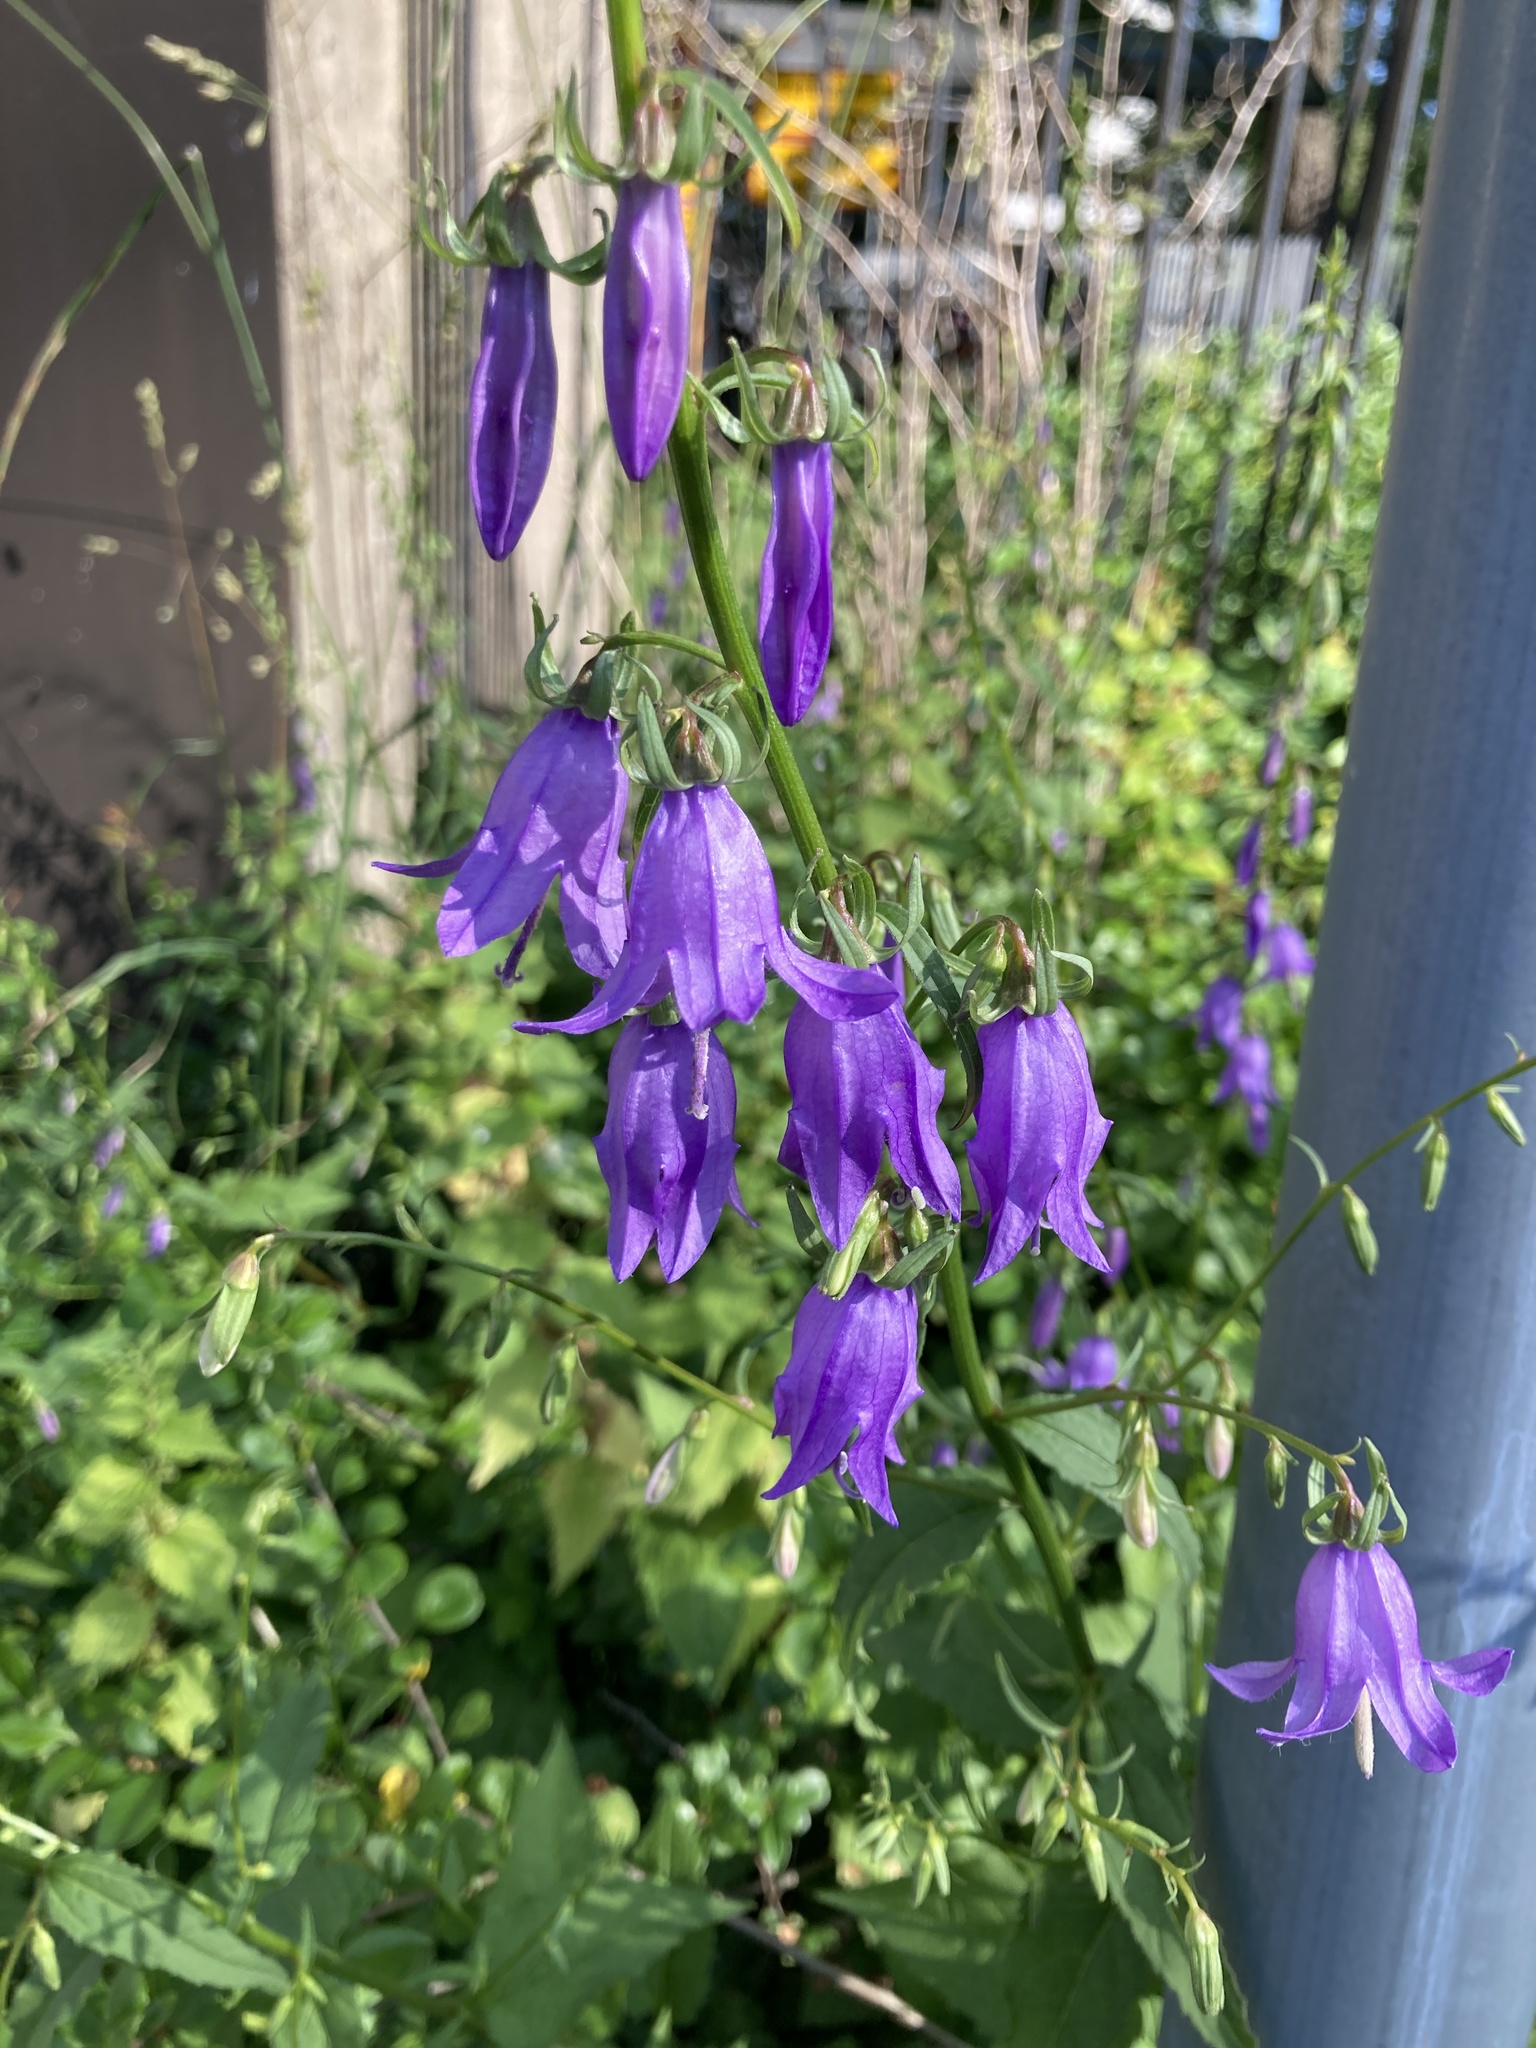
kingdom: Plantae
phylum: Tracheophyta
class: Magnoliopsida
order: Asterales
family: Campanulaceae
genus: Campanula
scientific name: Campanula rapunculoides
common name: Creeping bellflower
